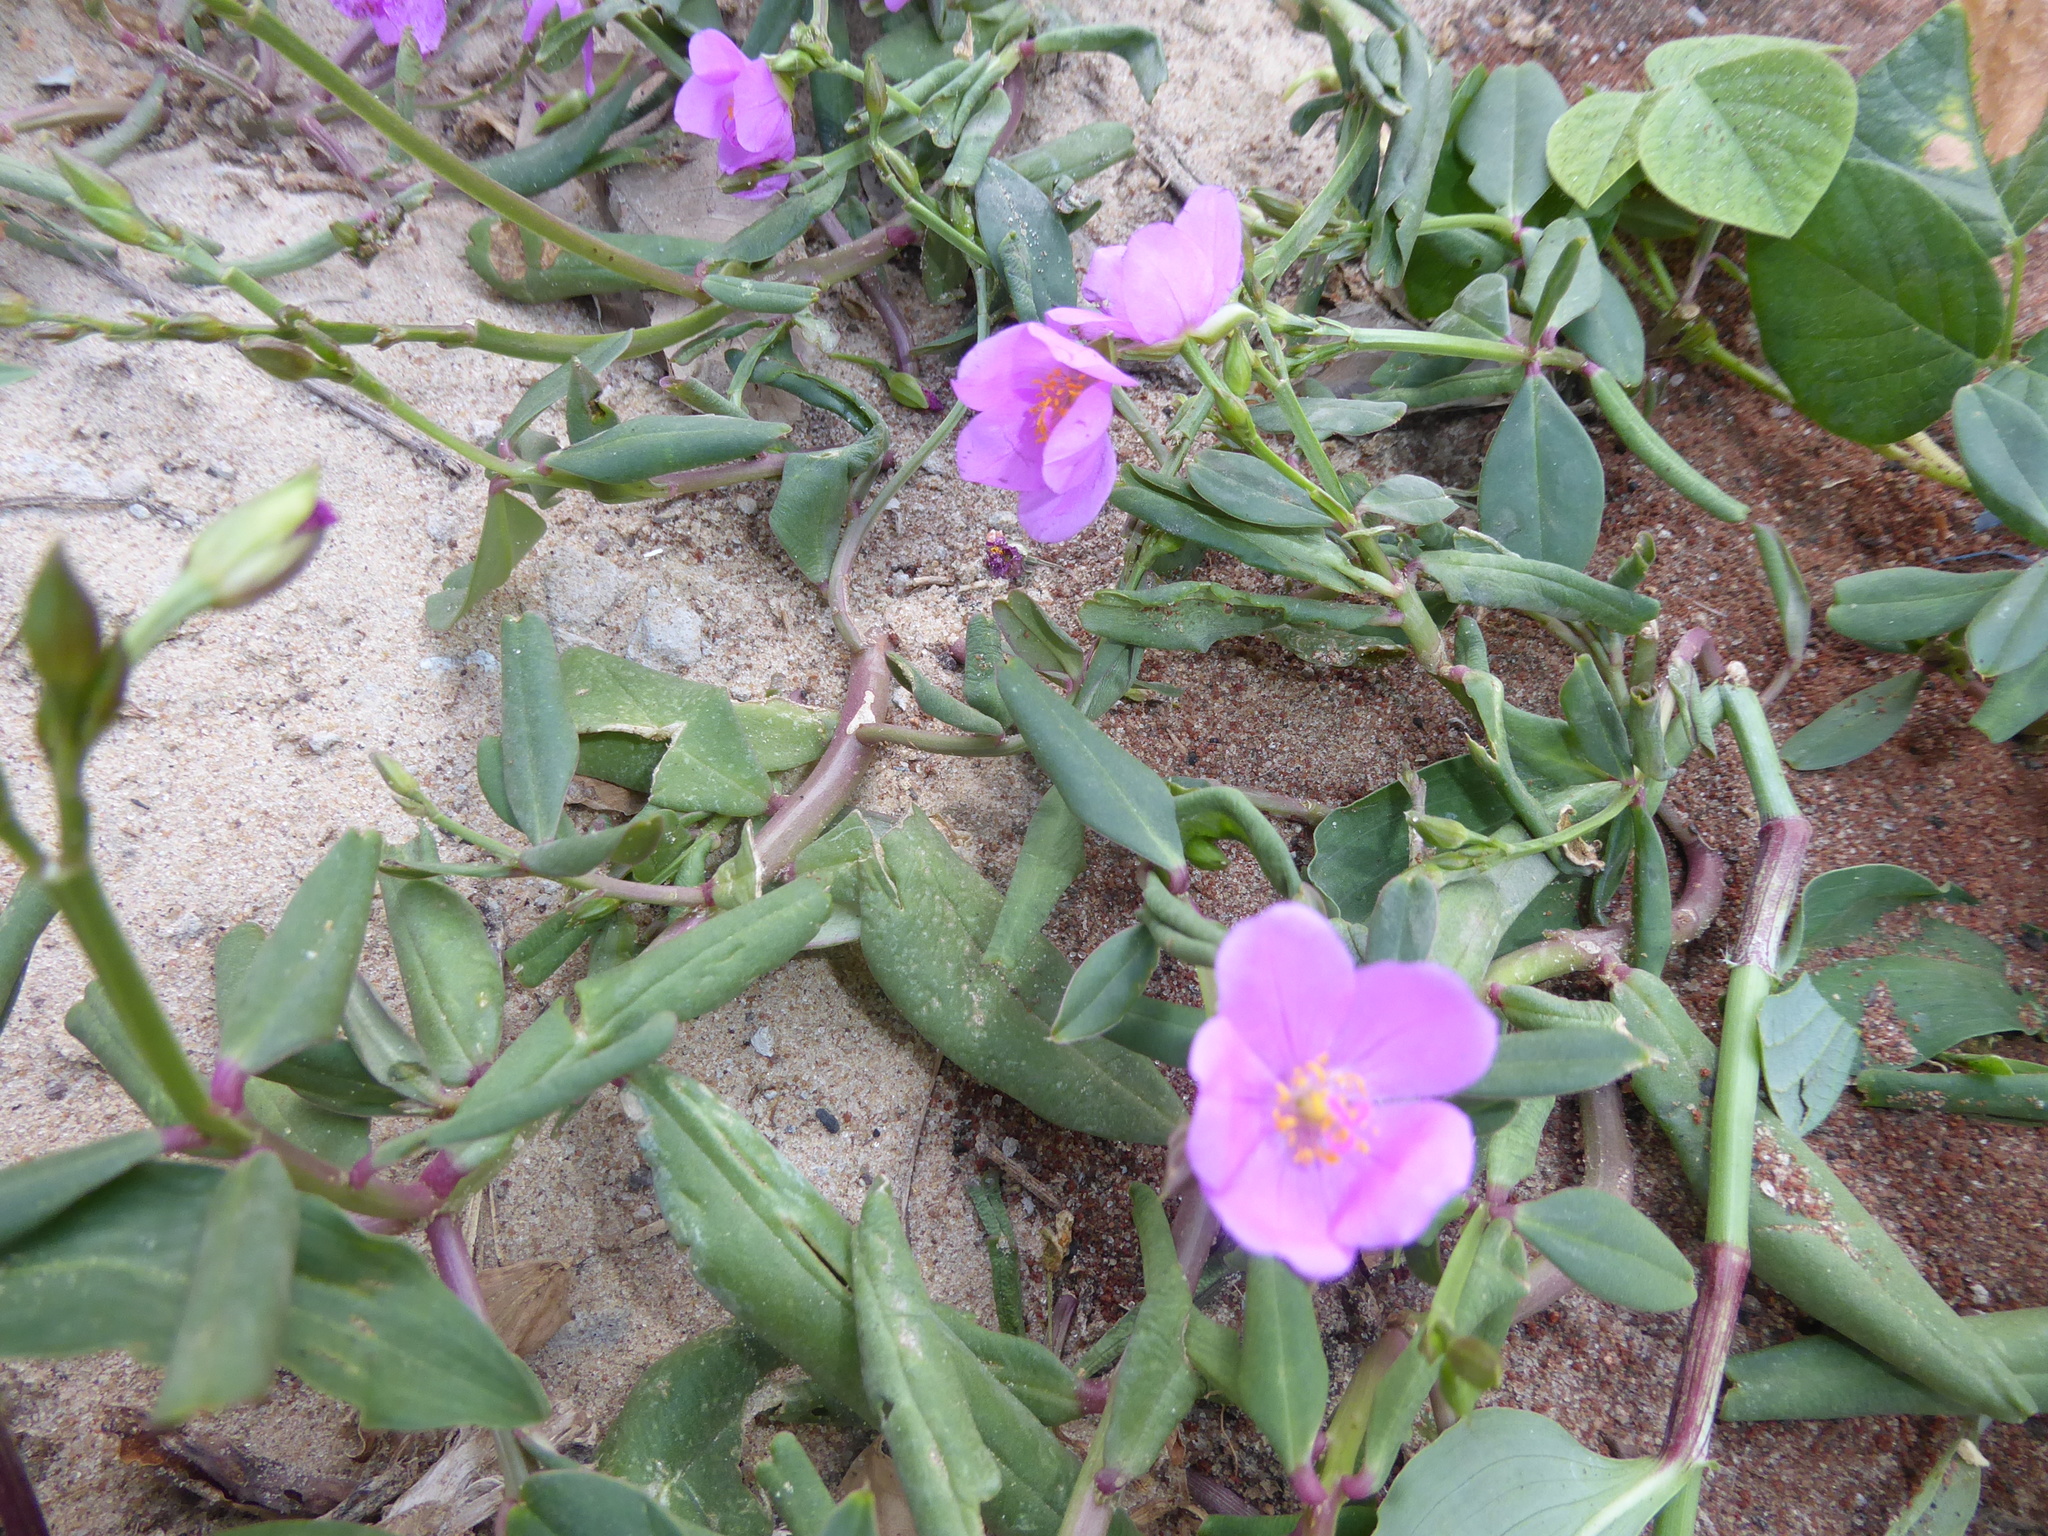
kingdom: Plantae
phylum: Tracheophyta
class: Magnoliopsida
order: Caryophyllales
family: Talinaceae
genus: Talinum
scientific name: Talinum fruticosum
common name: Verdolaga-francesa
